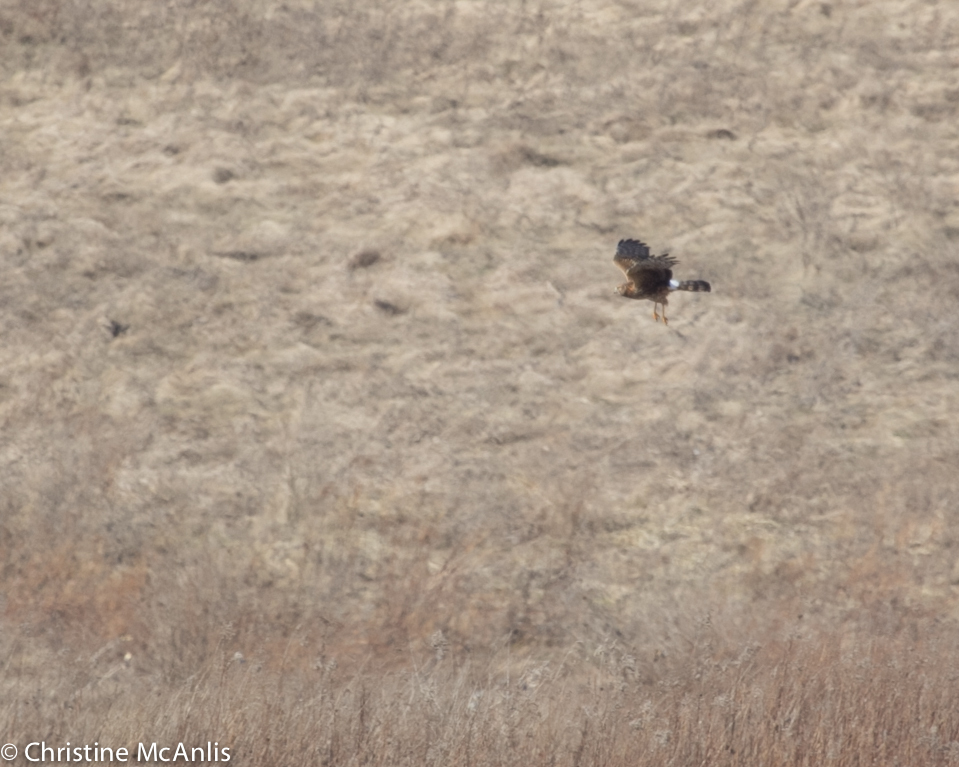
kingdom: Animalia
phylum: Chordata
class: Aves
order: Accipitriformes
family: Accipitridae
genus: Circus
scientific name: Circus cyaneus
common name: Hen harrier
